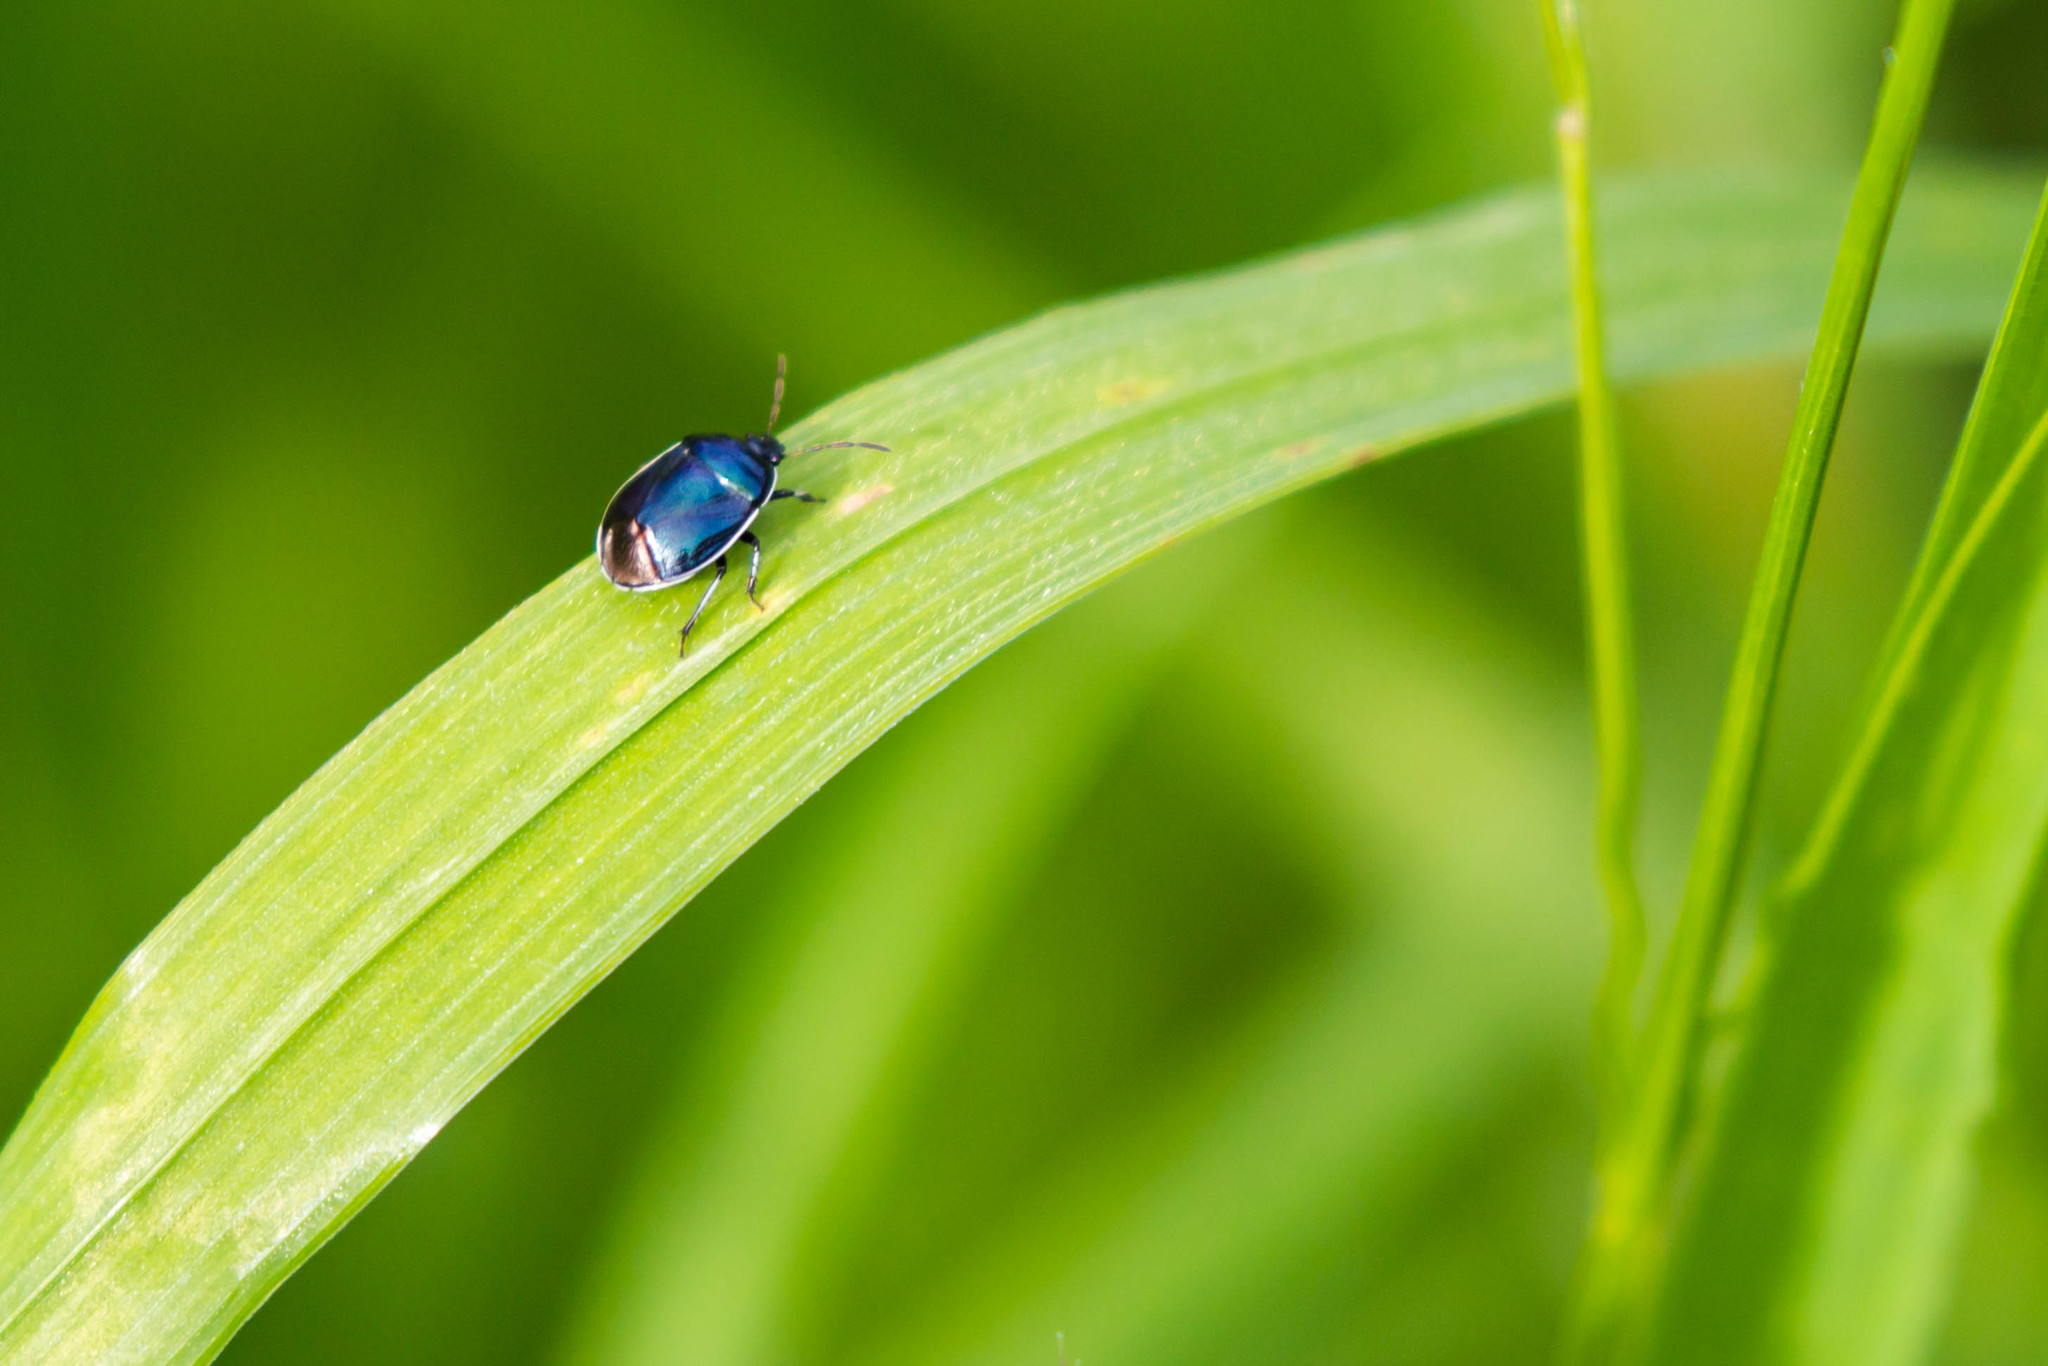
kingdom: Animalia
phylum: Arthropoda
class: Insecta
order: Hemiptera
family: Cydnidae
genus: Sehirus
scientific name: Sehirus cinctus
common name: White-margined burrower bug
